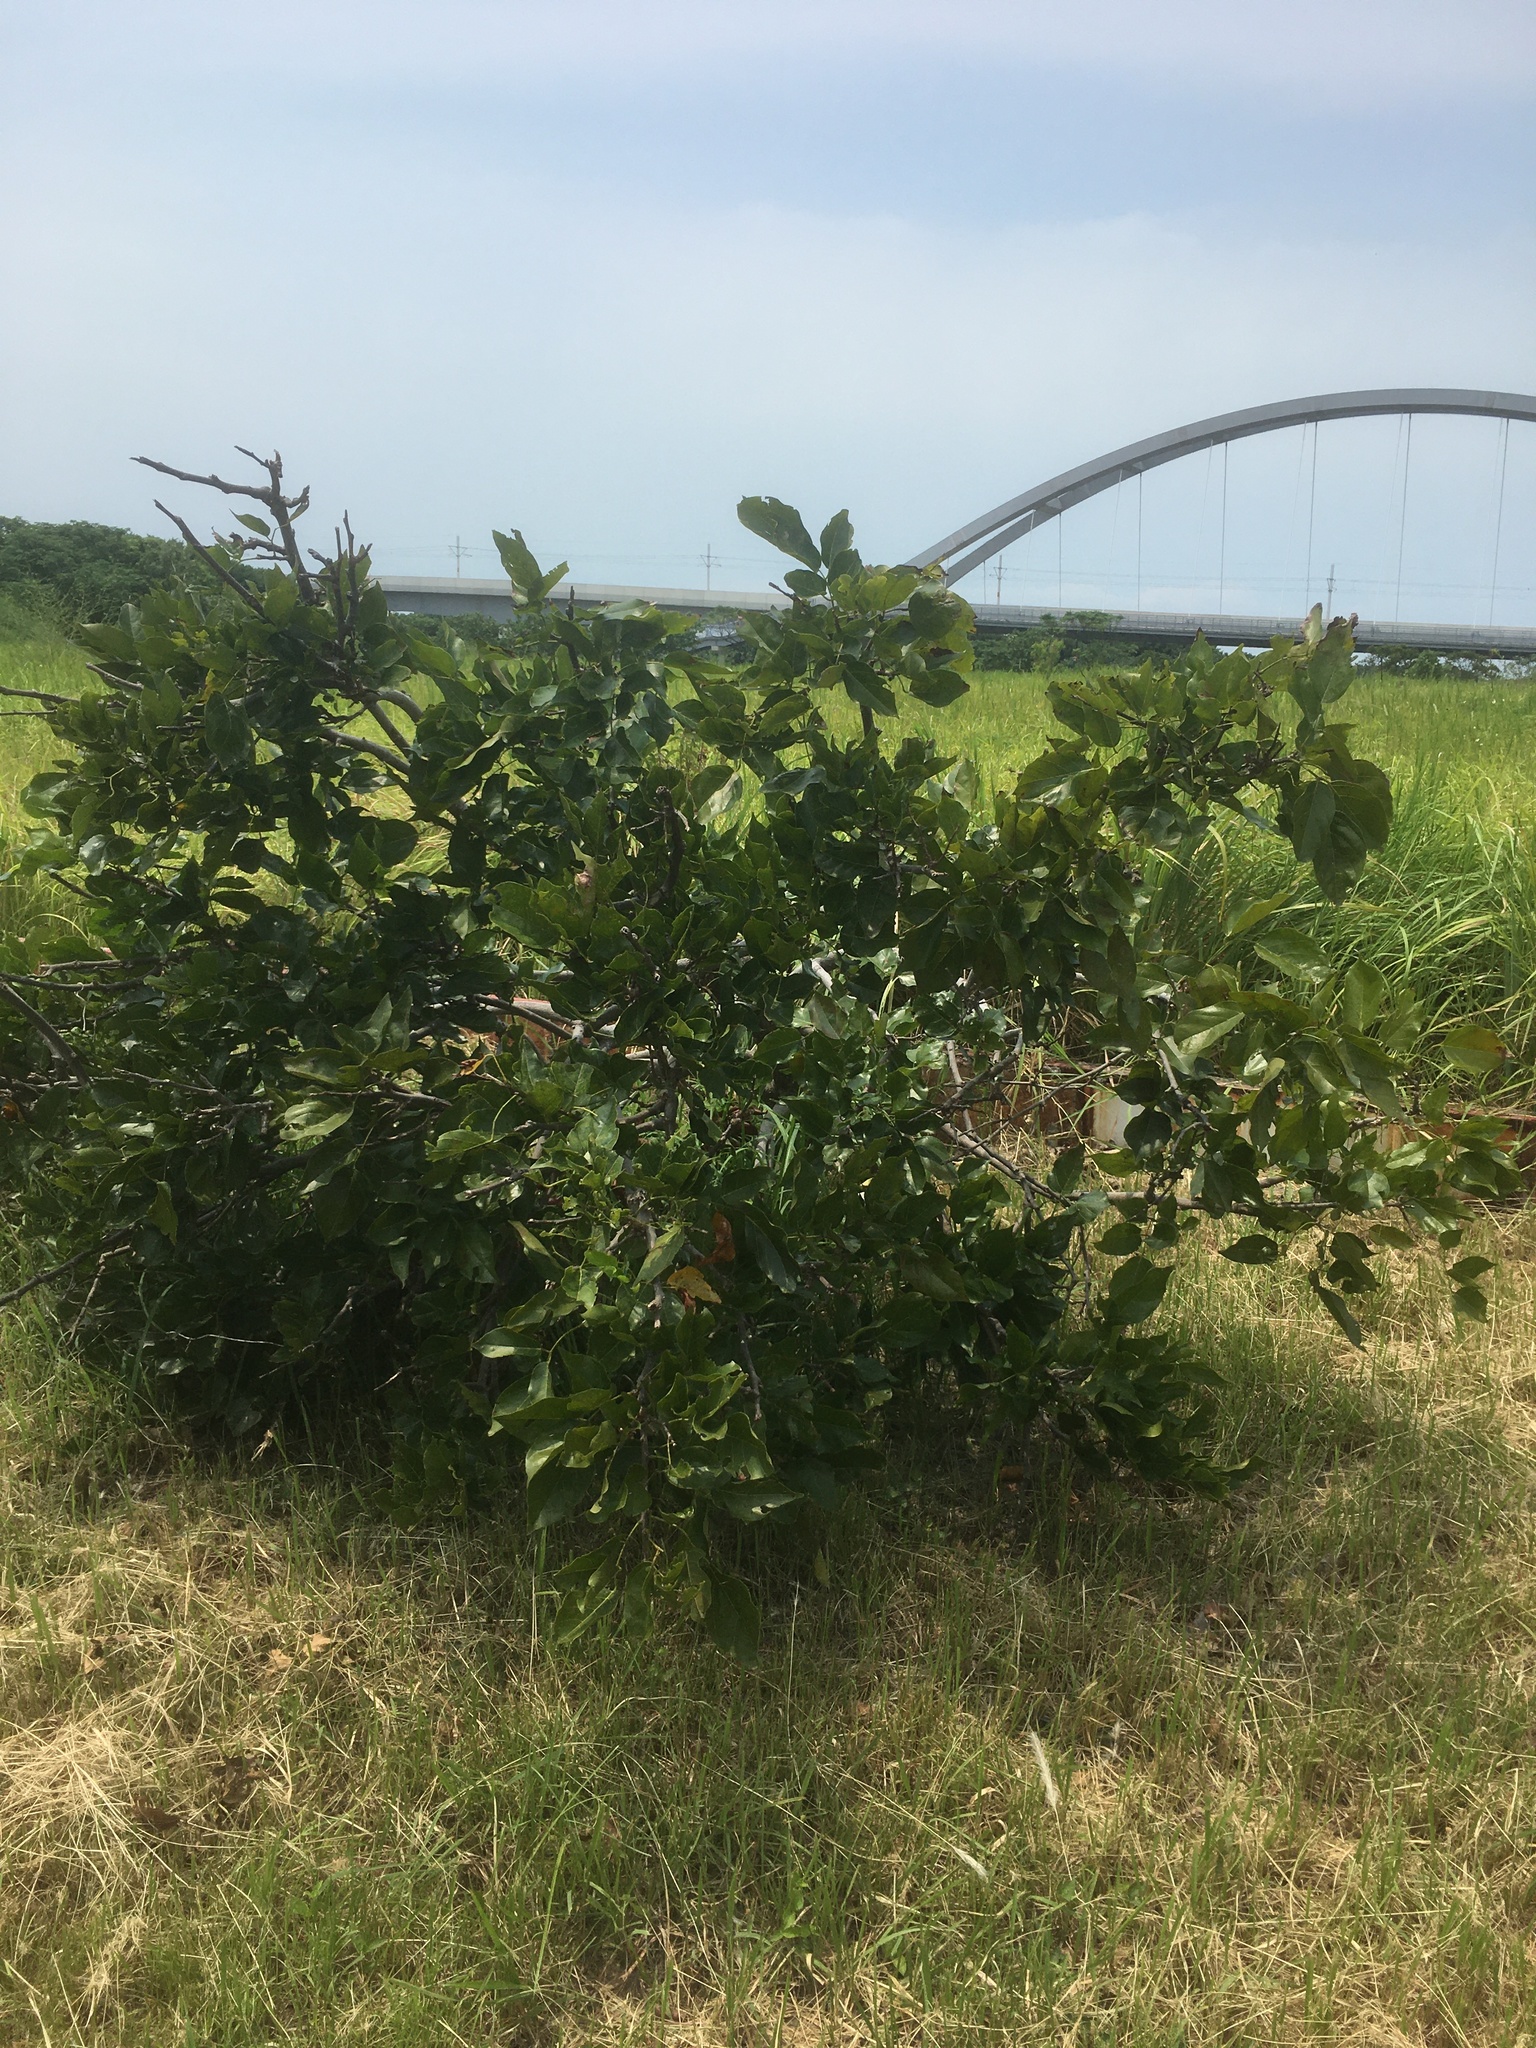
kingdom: Plantae
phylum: Tracheophyta
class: Magnoliopsida
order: Fabales
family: Fabaceae
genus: Pongamia
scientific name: Pongamia pinnata
